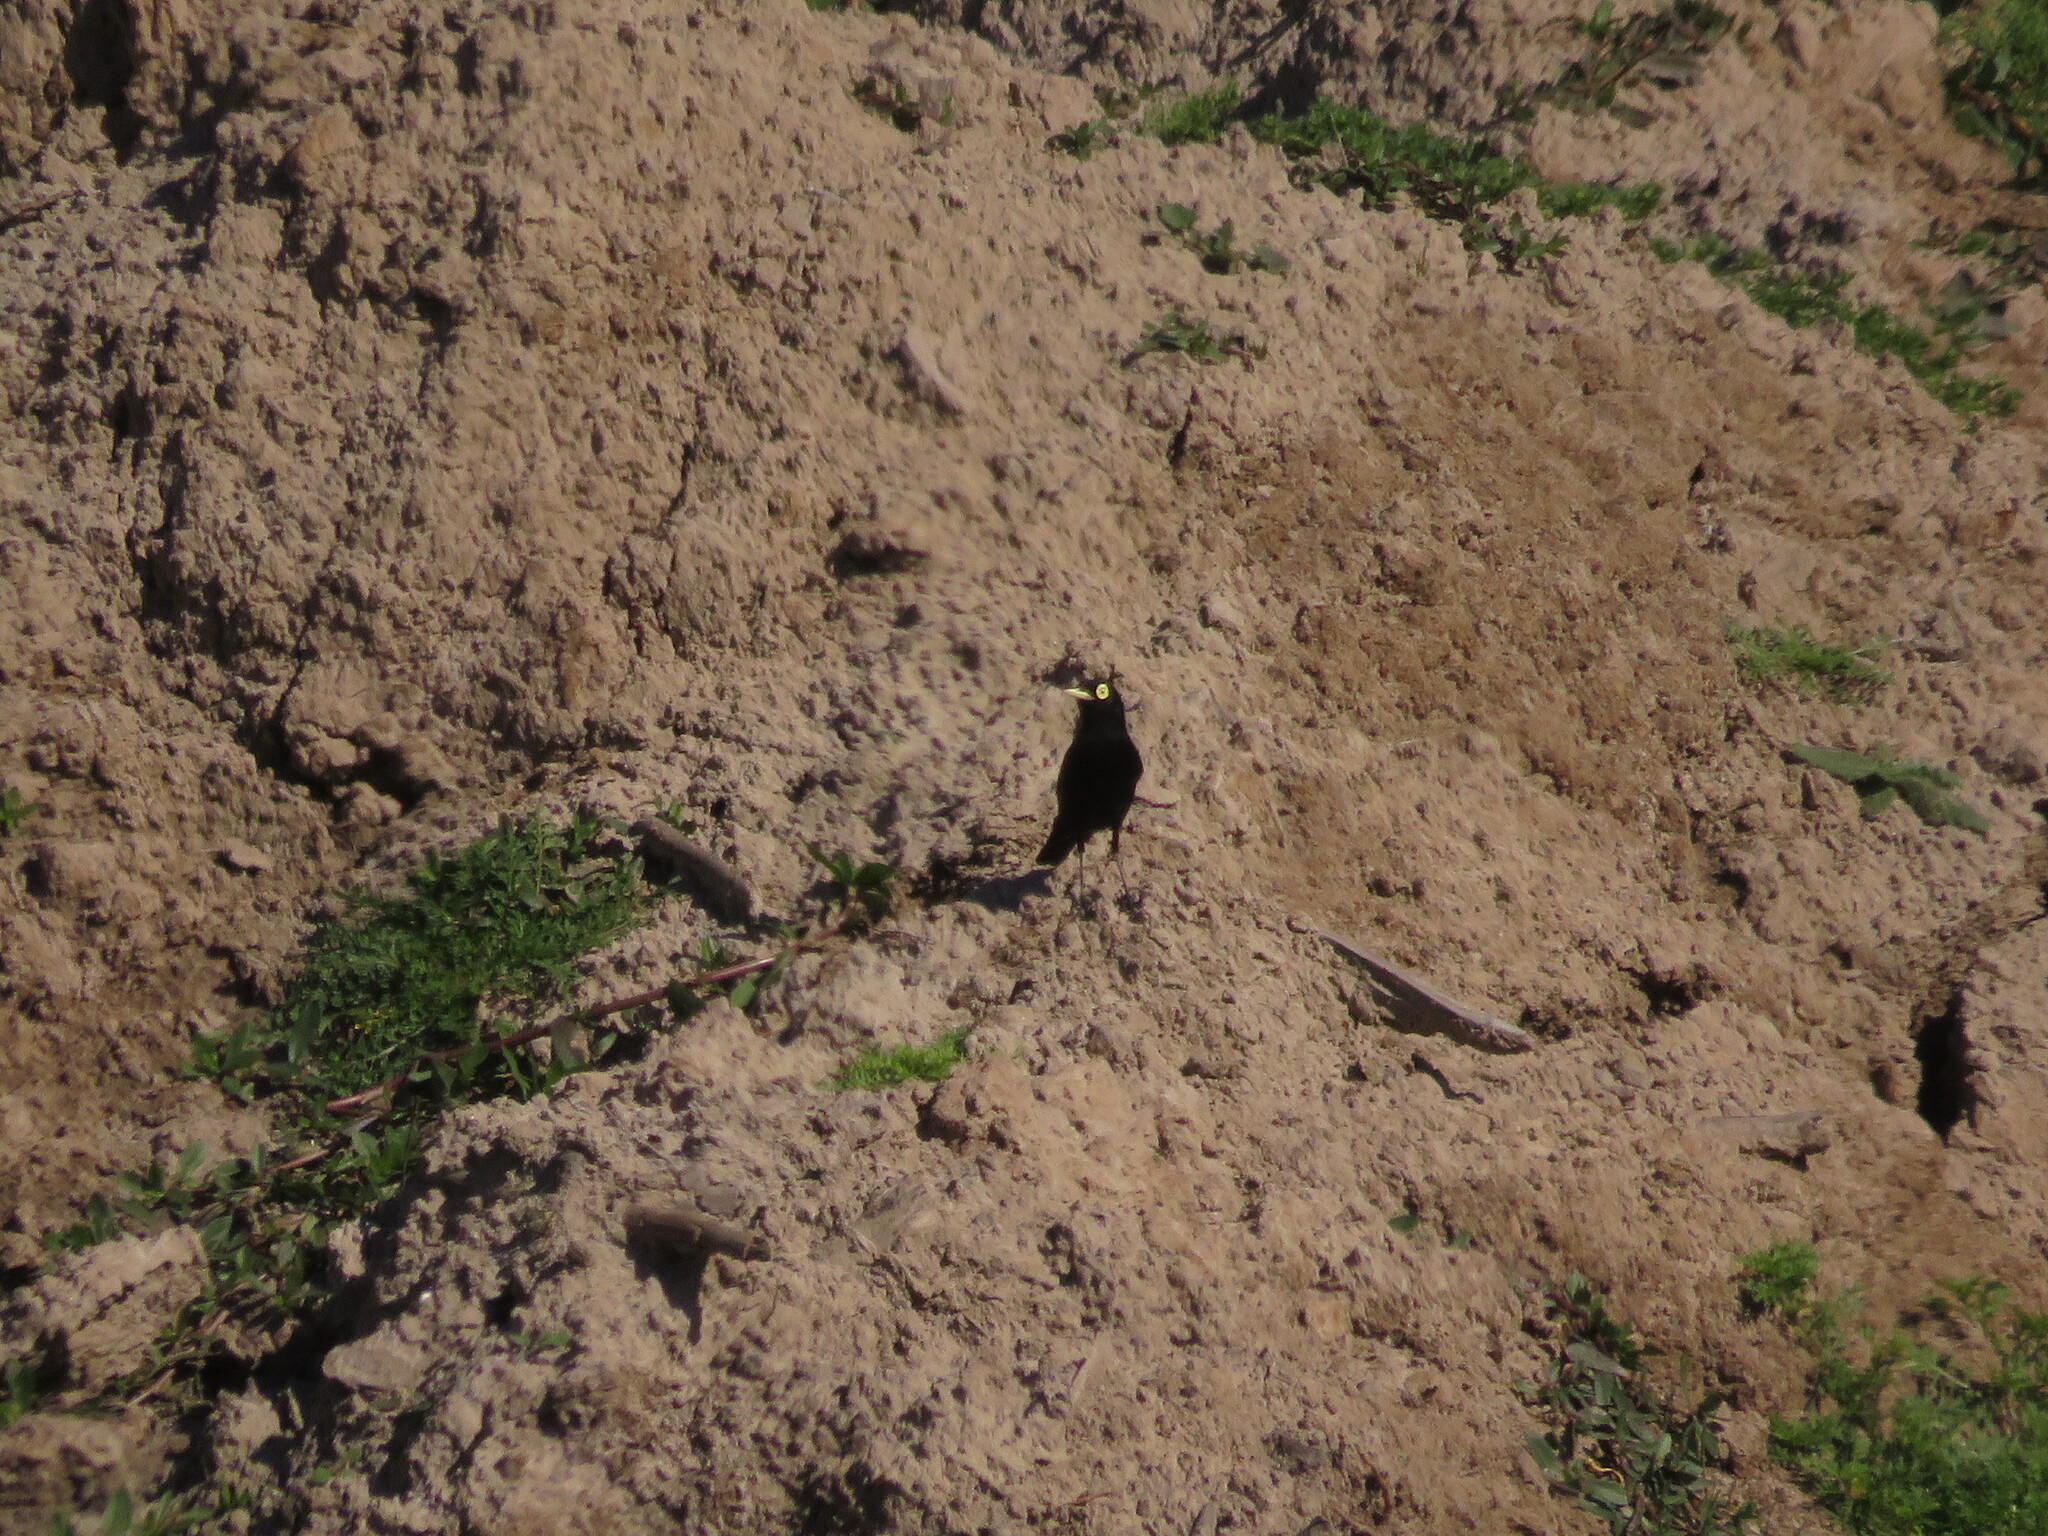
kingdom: Animalia
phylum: Chordata
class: Aves
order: Passeriformes
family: Tyrannidae
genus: Hymenops
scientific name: Hymenops perspicillatus
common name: Spectacled tyrant
